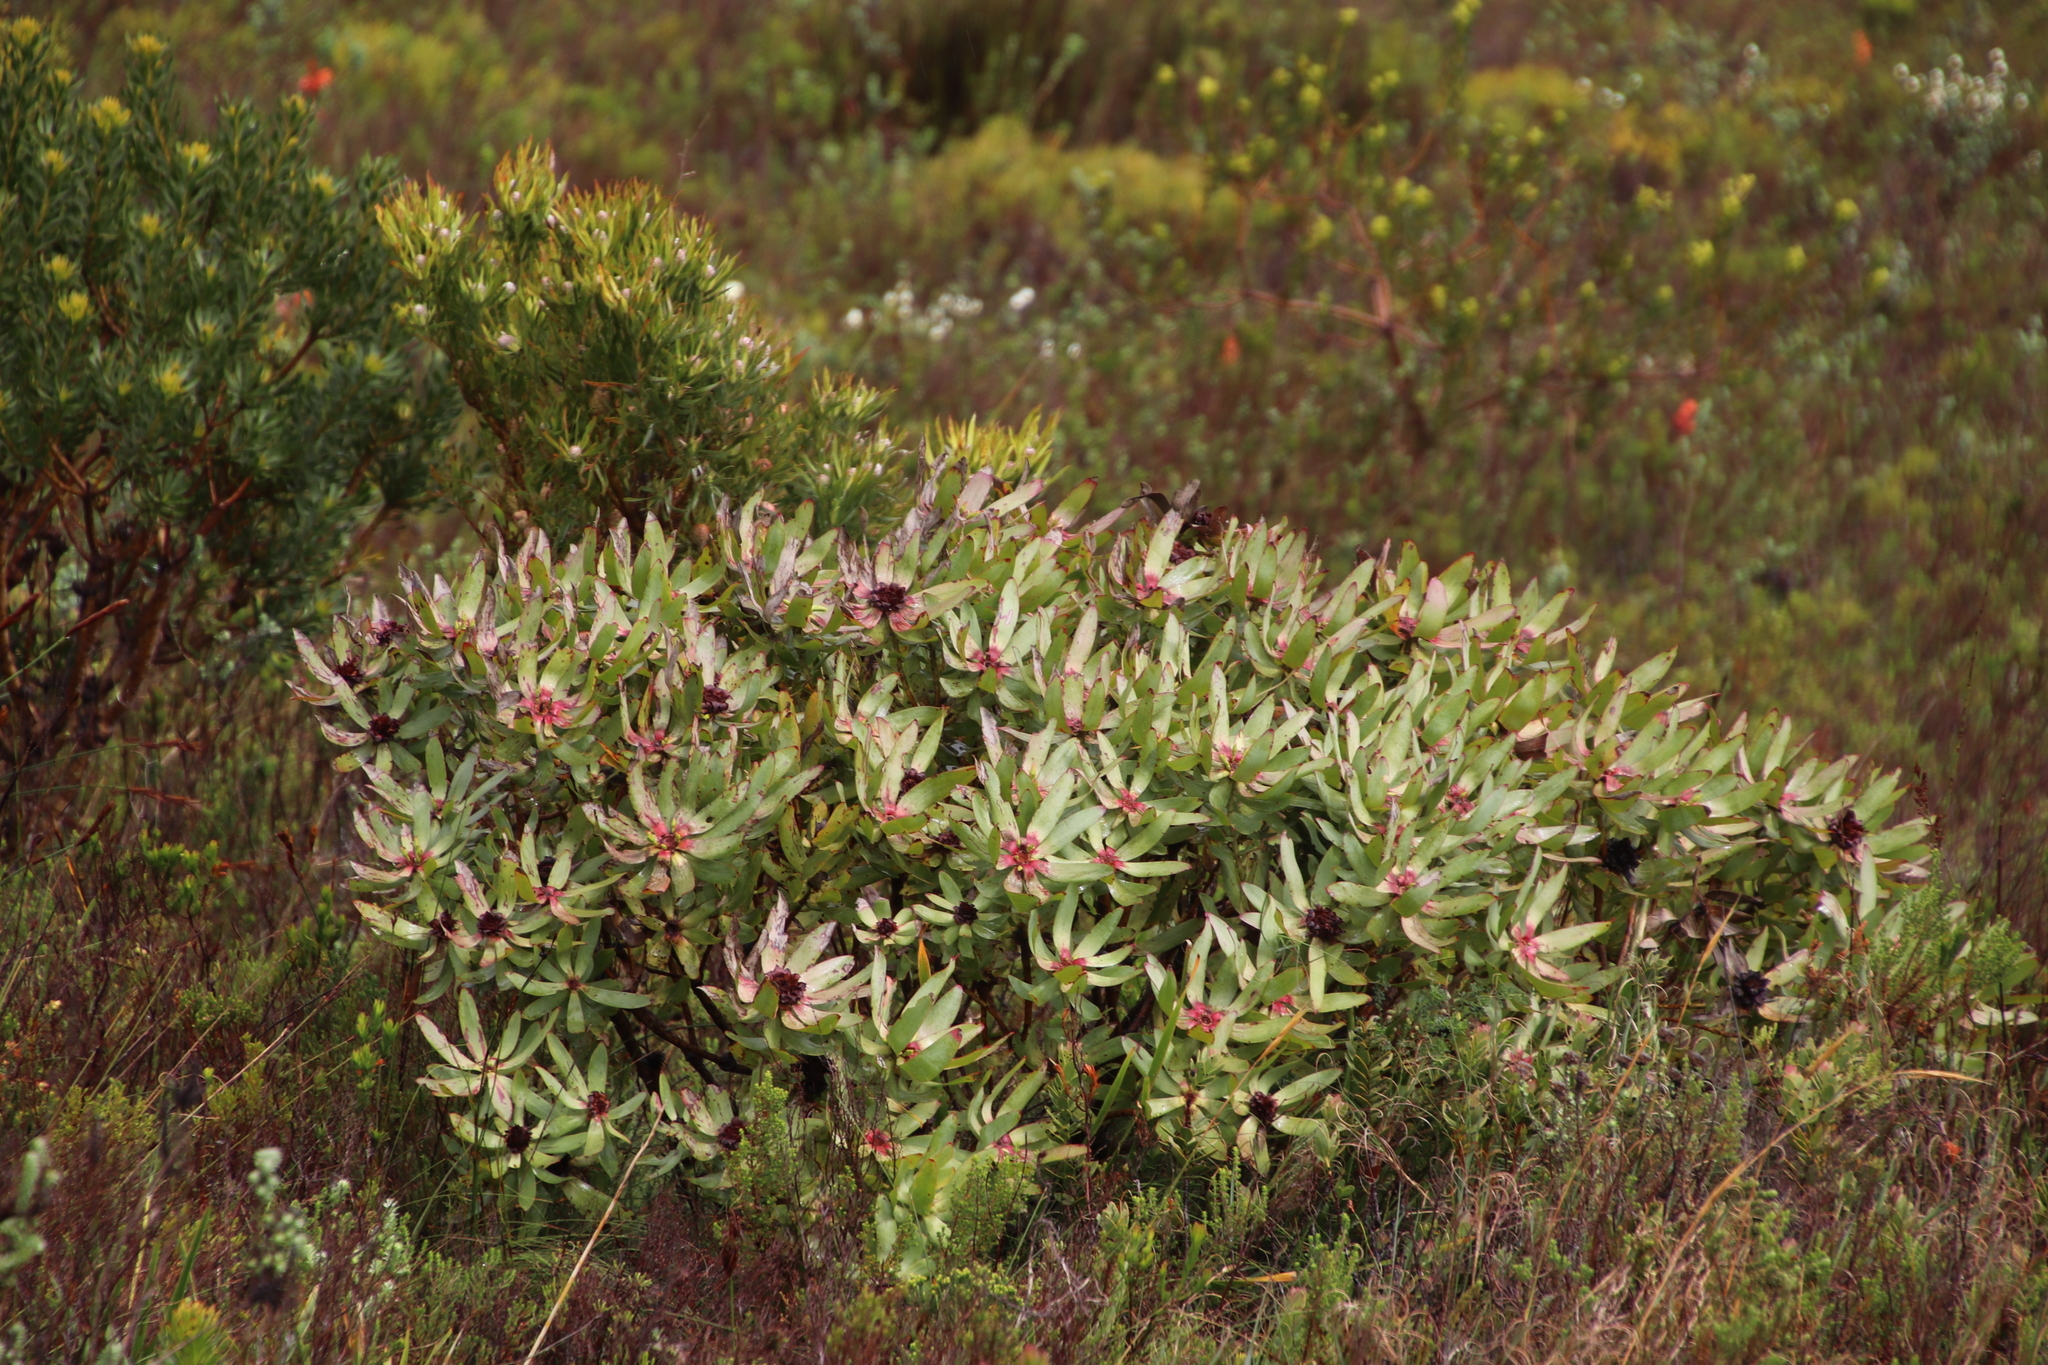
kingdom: Plantae
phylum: Tracheophyta
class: Magnoliopsida
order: Proteales
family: Proteaceae
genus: Leucadendron
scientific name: Leucadendron tinctum
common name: Spicy conebush
